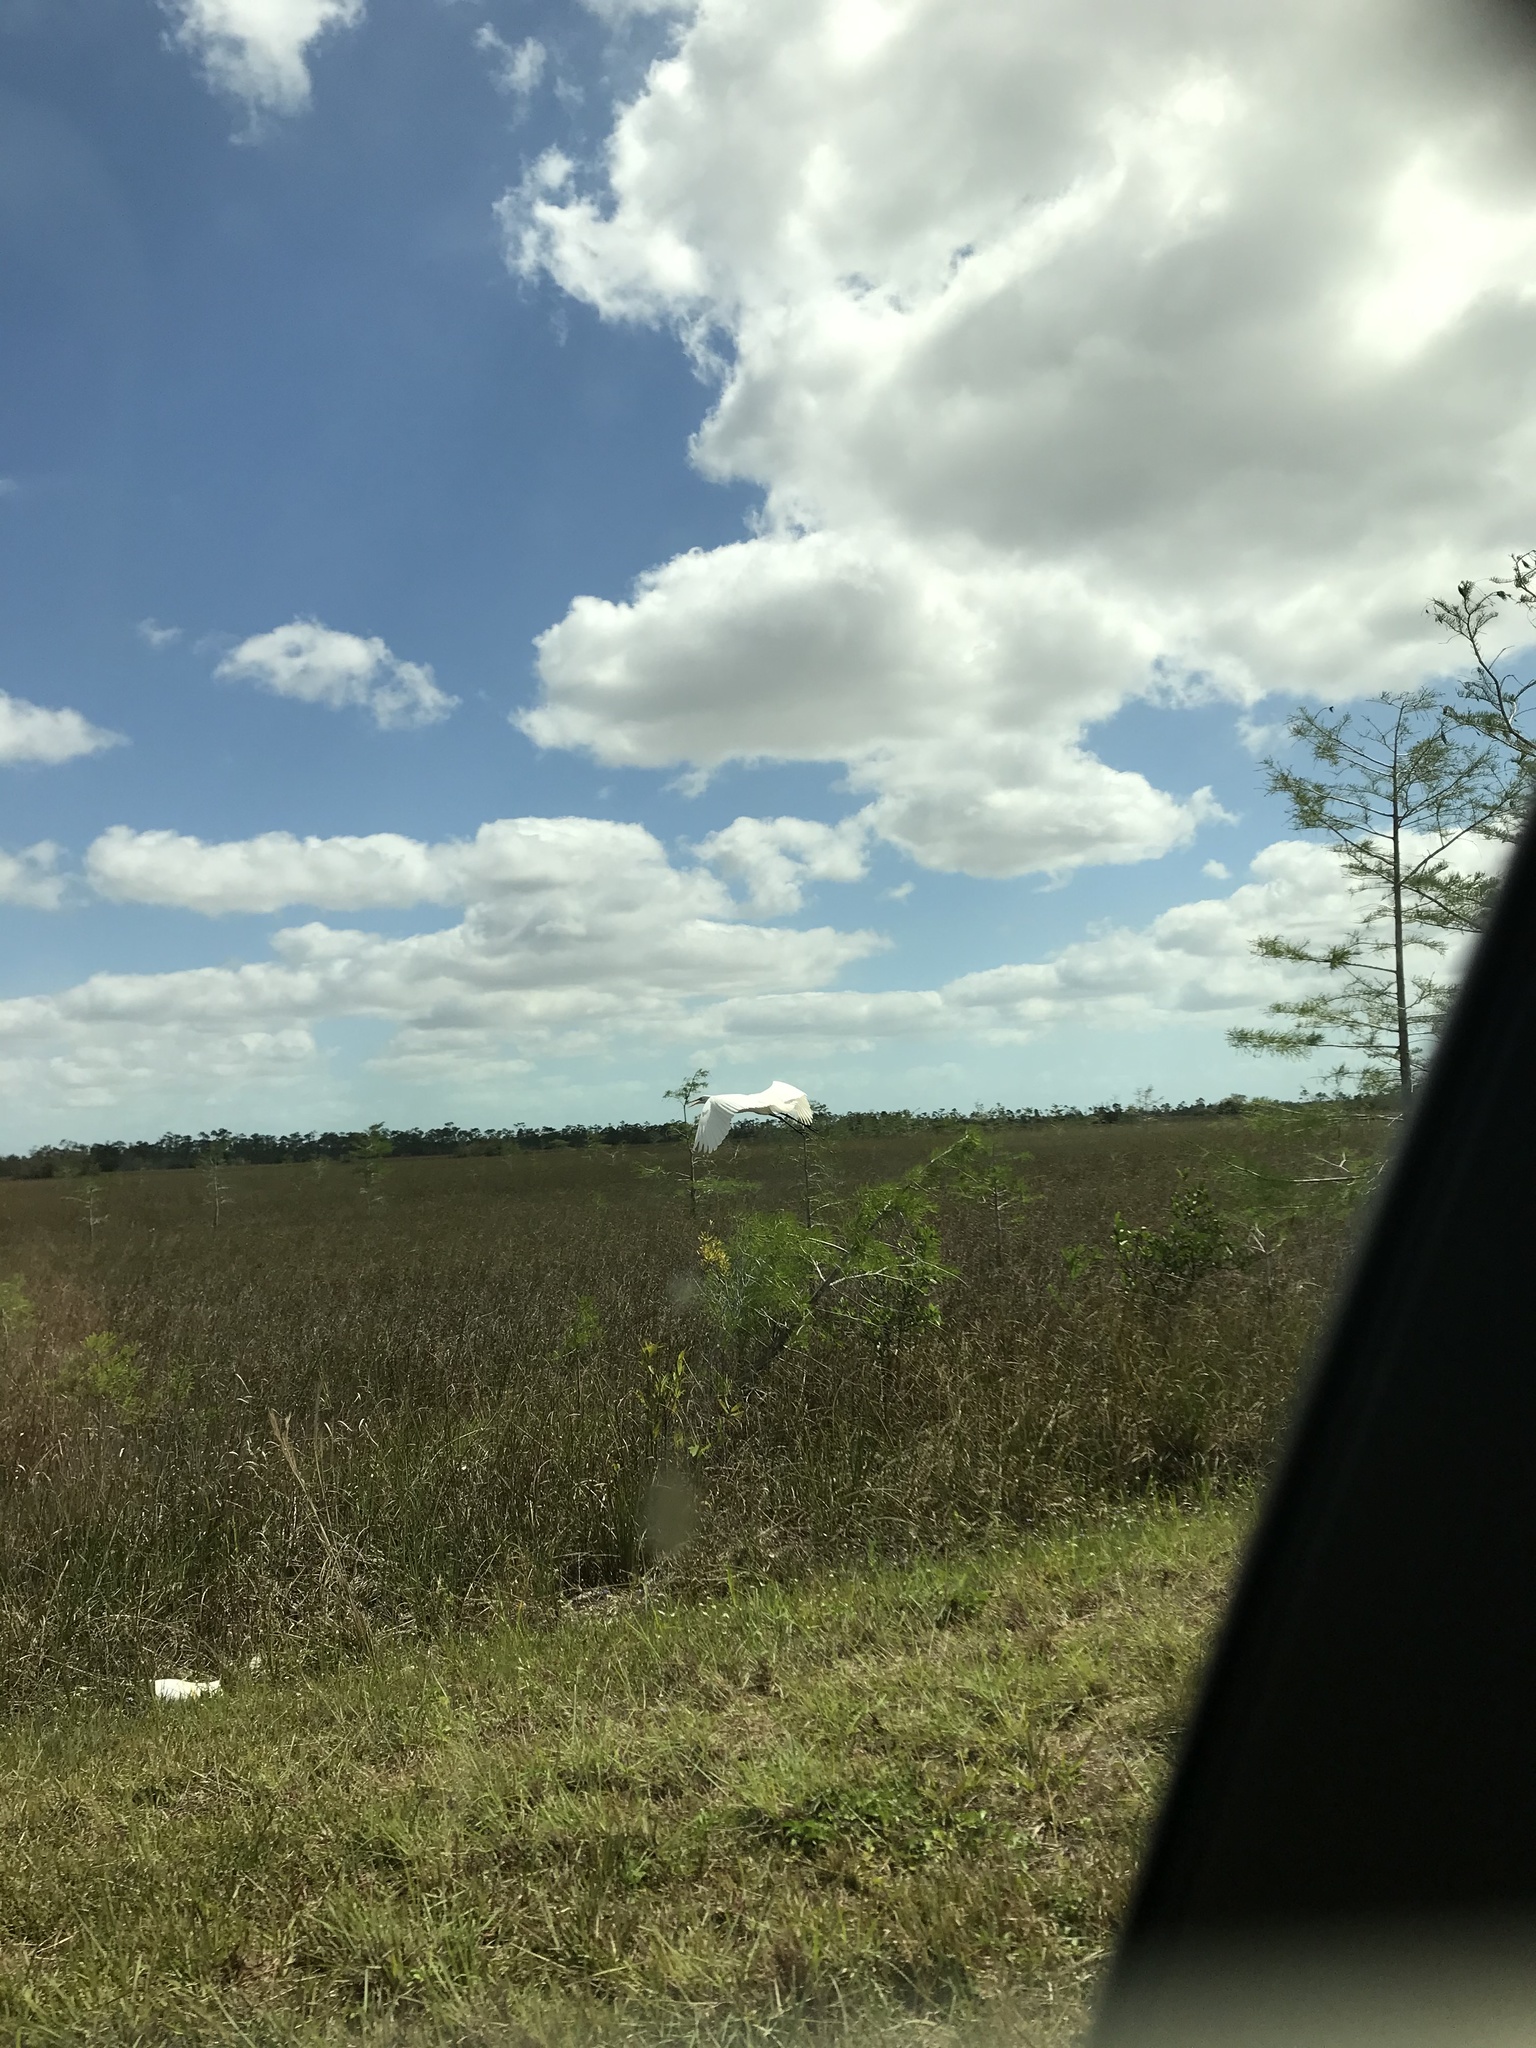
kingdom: Animalia
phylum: Chordata
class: Aves
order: Pelecaniformes
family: Ardeidae
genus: Ardea
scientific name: Ardea alba
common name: Great egret
